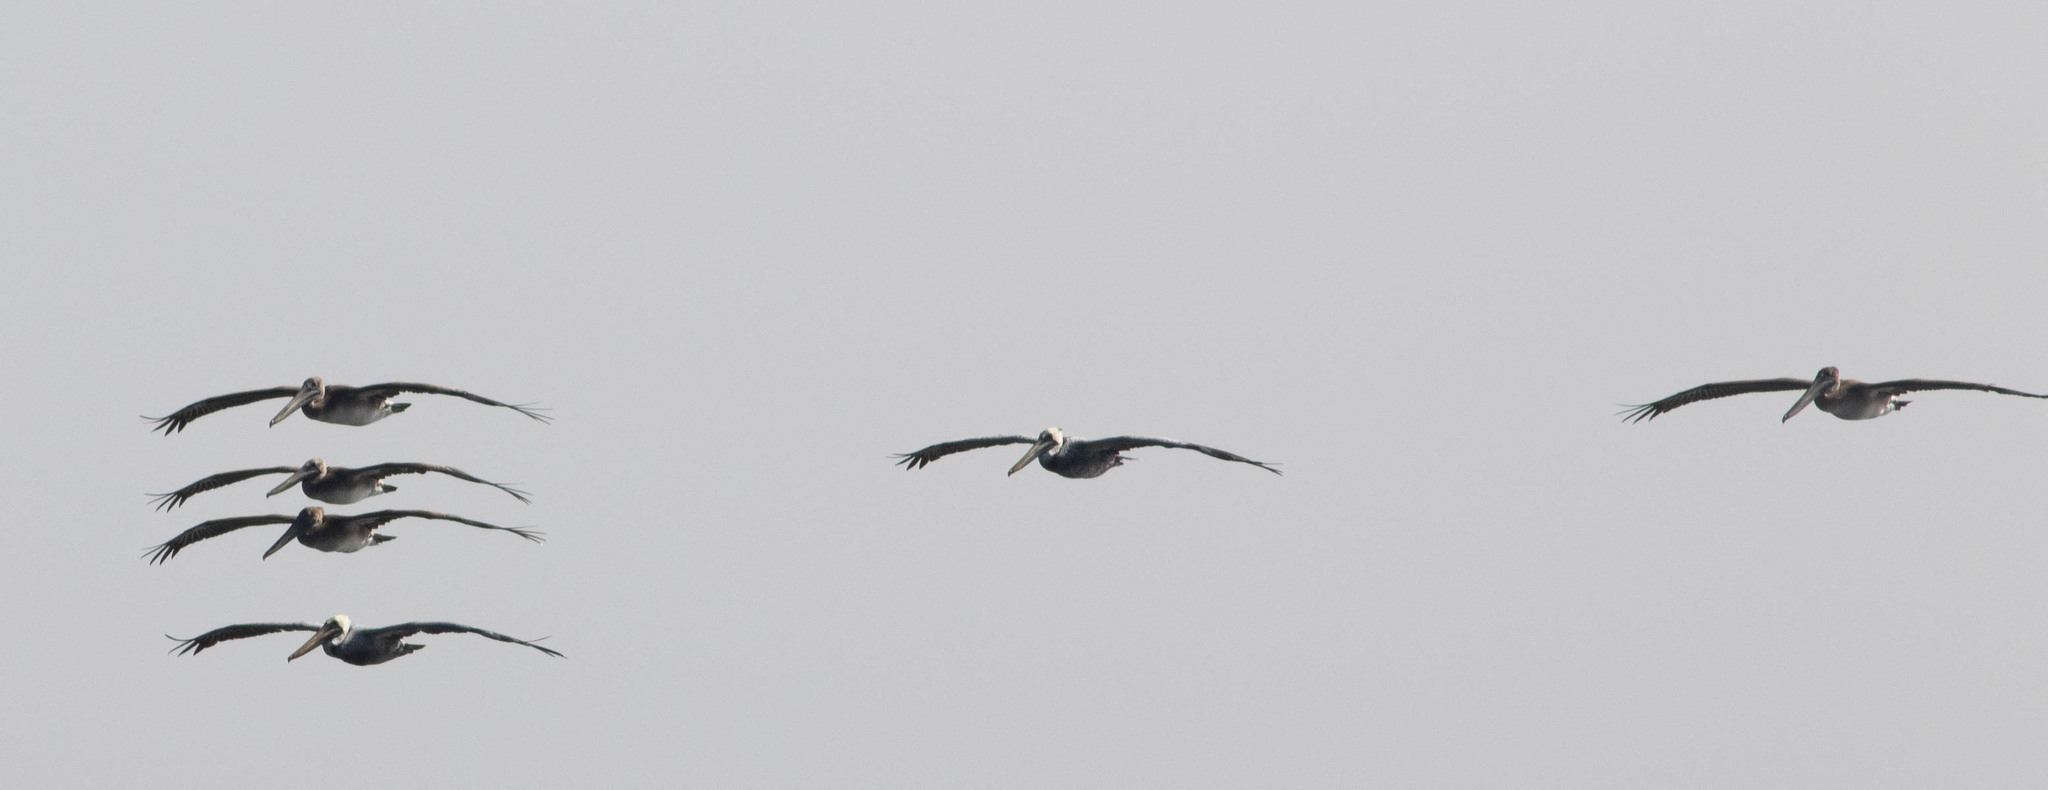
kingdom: Animalia
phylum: Chordata
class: Aves
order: Pelecaniformes
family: Pelecanidae
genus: Pelecanus
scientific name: Pelecanus occidentalis
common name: Brown pelican
